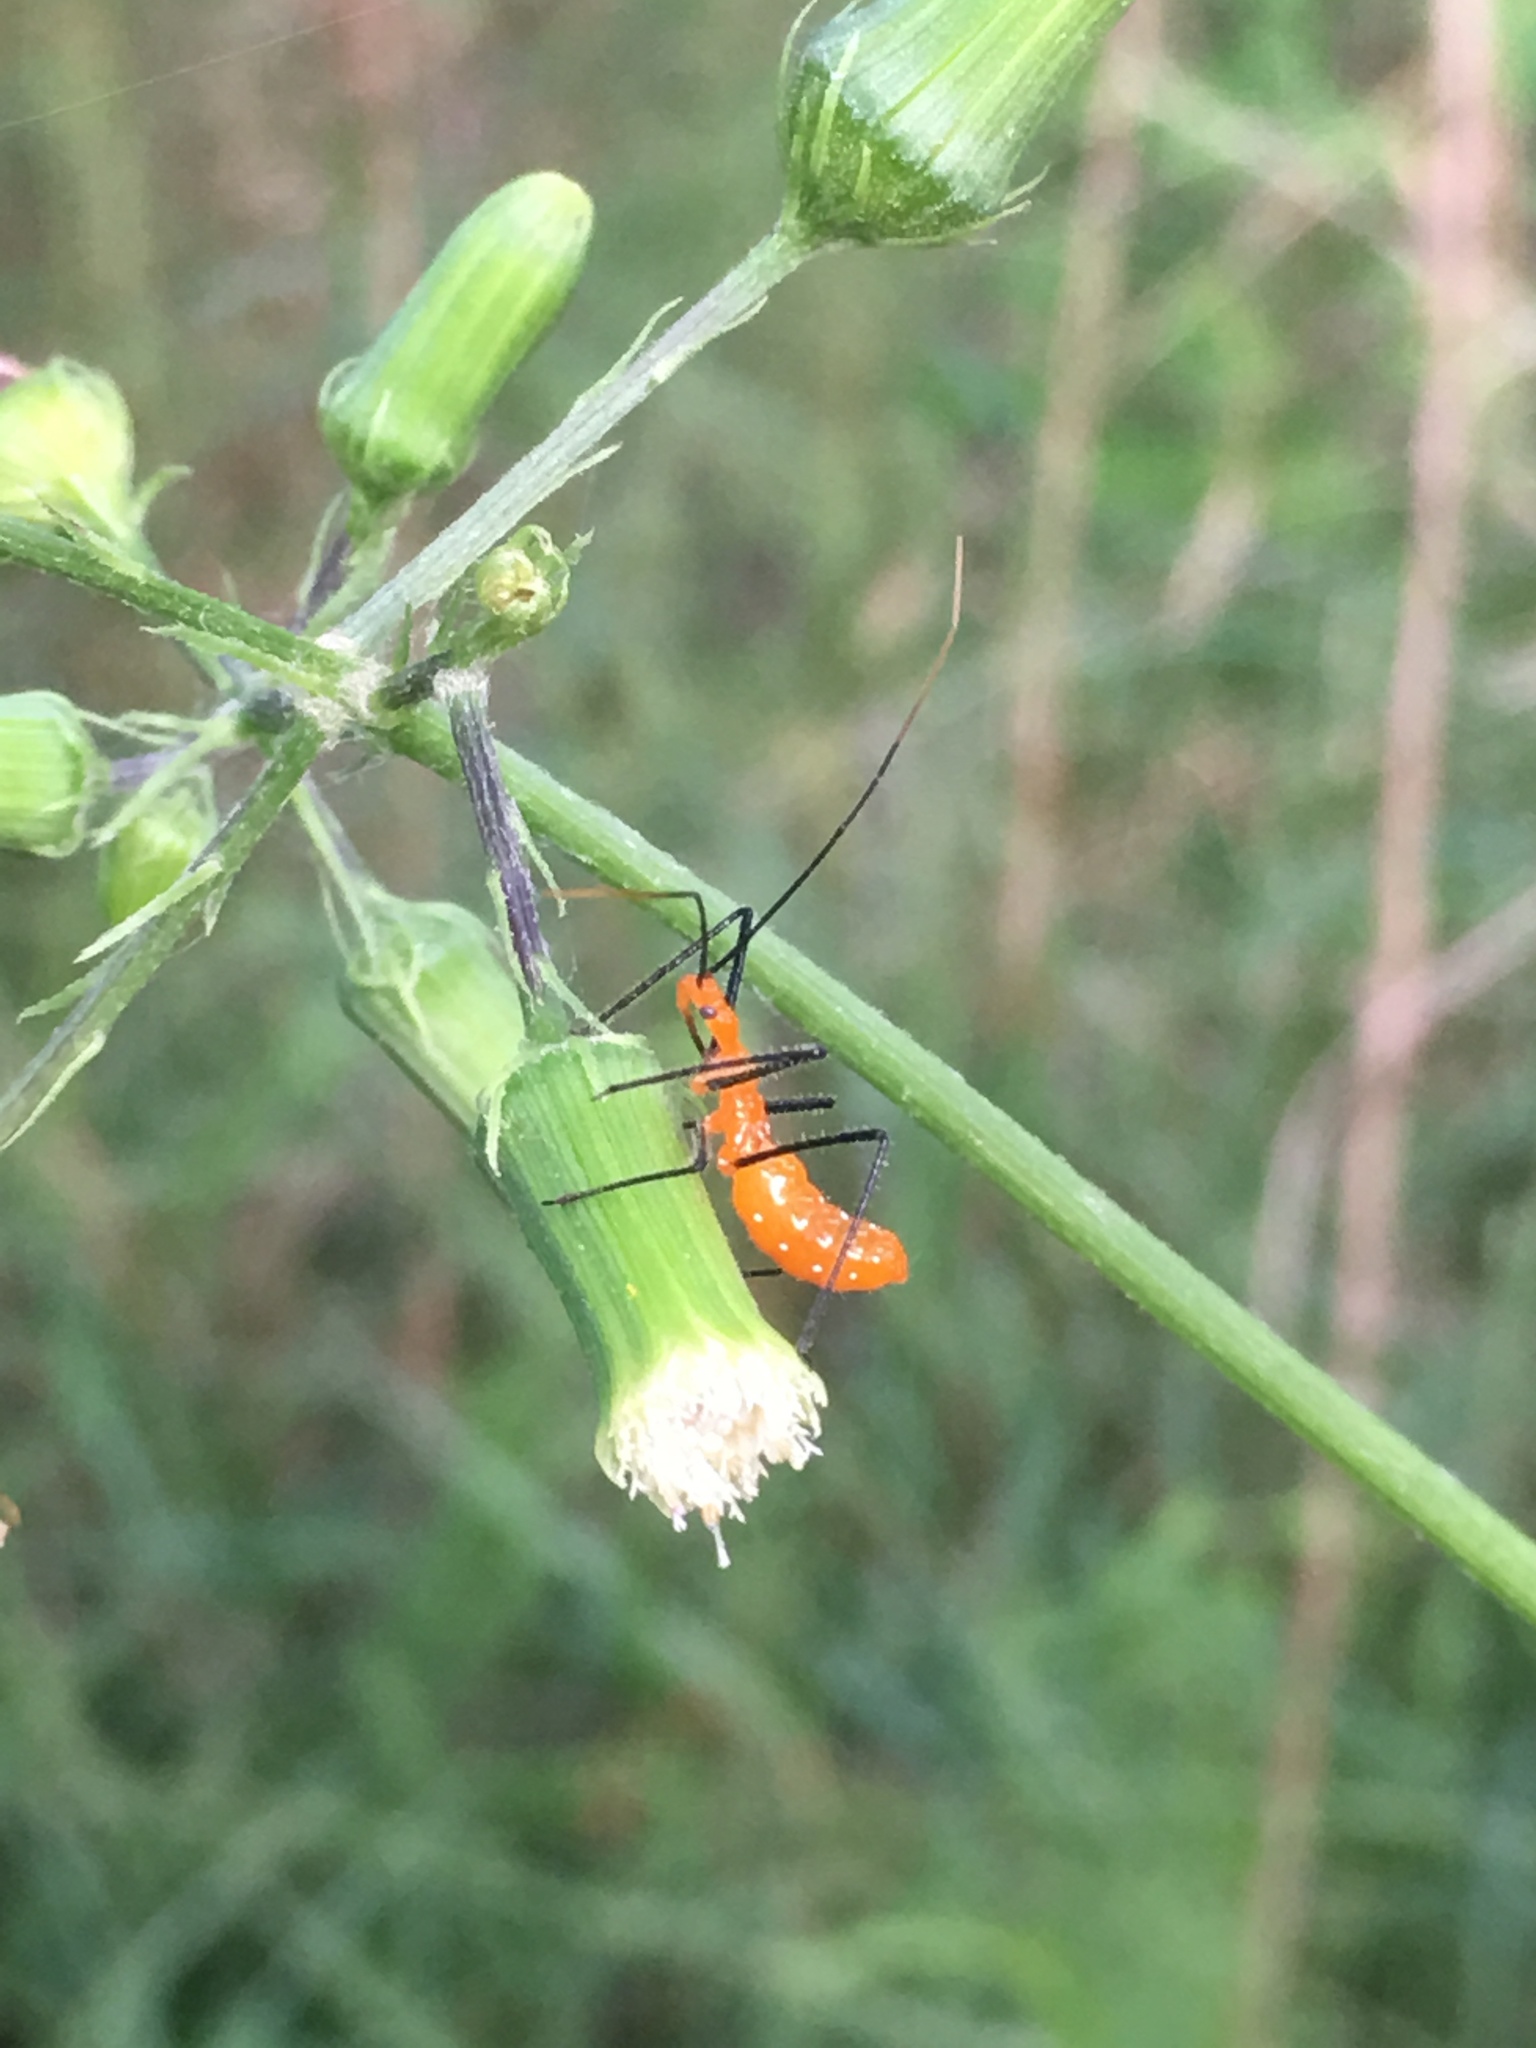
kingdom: Animalia
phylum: Arthropoda
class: Insecta
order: Hemiptera
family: Reduviidae
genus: Zelus
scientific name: Zelus longipes
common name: Milkweed assassin bug
